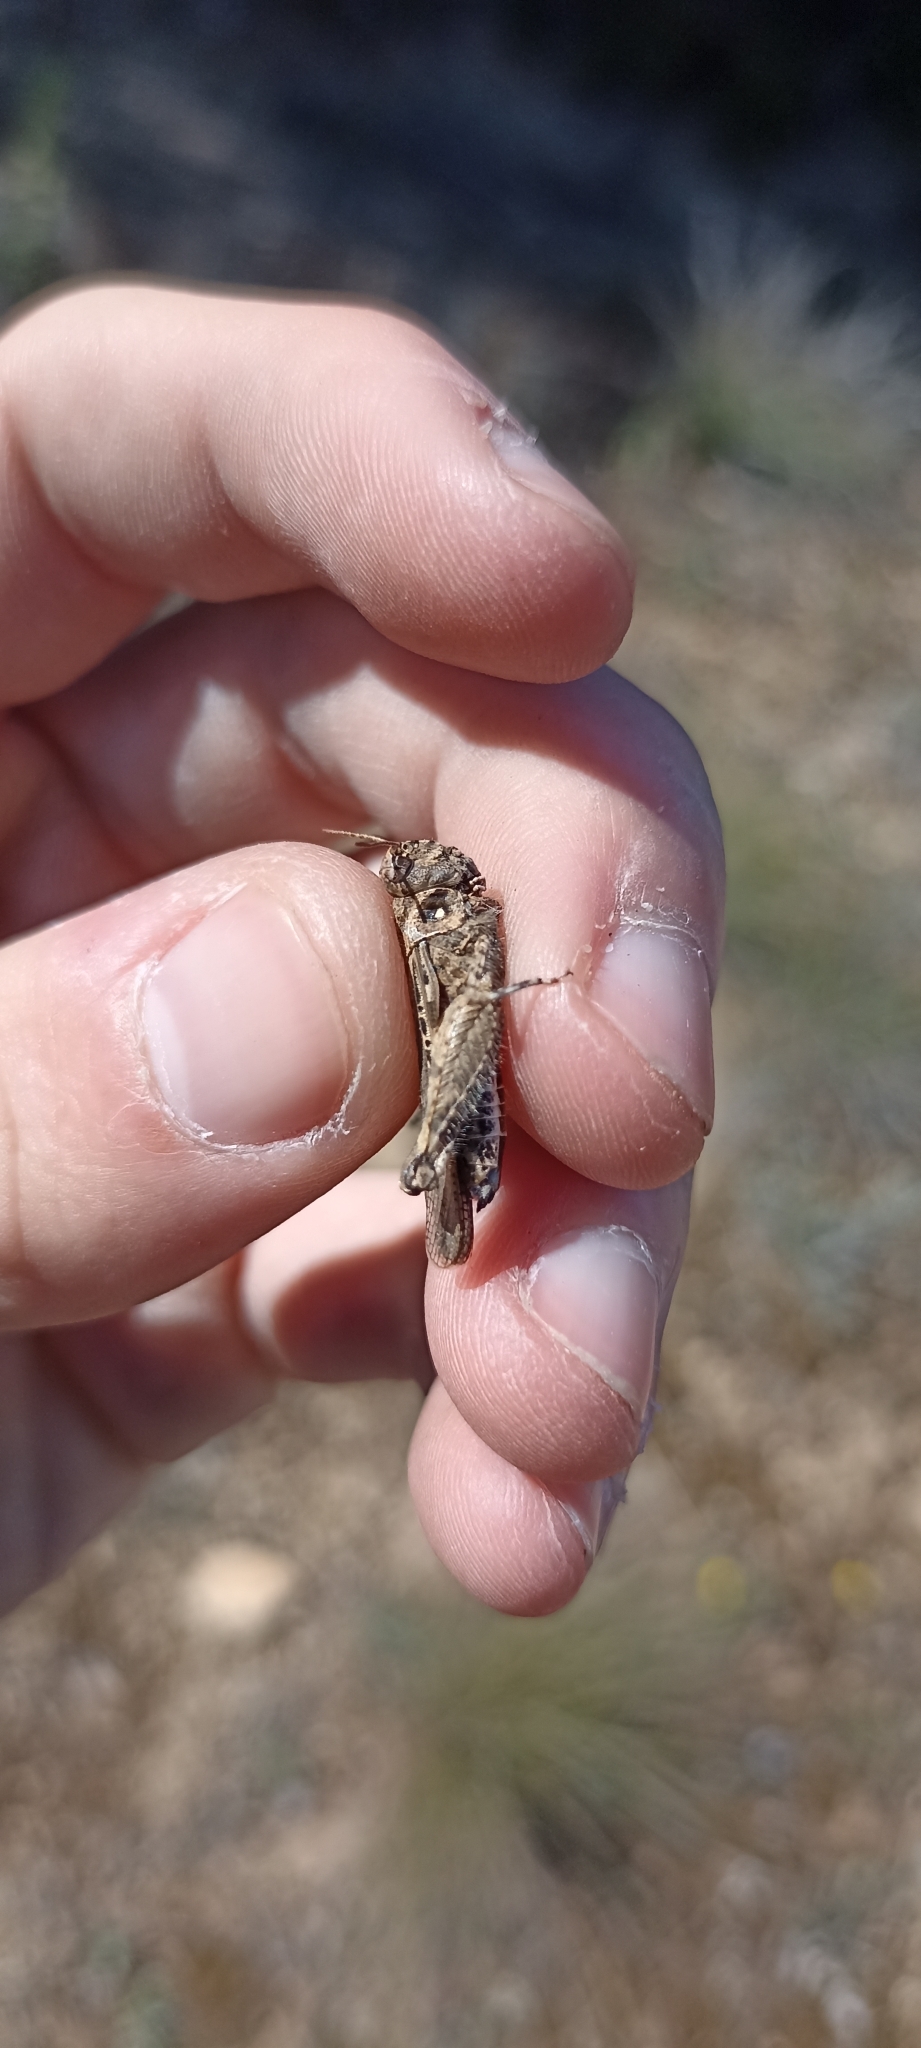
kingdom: Animalia
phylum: Arthropoda
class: Insecta
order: Orthoptera
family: Acrididae
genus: Acrotylus
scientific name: Acrotylus insubricus
